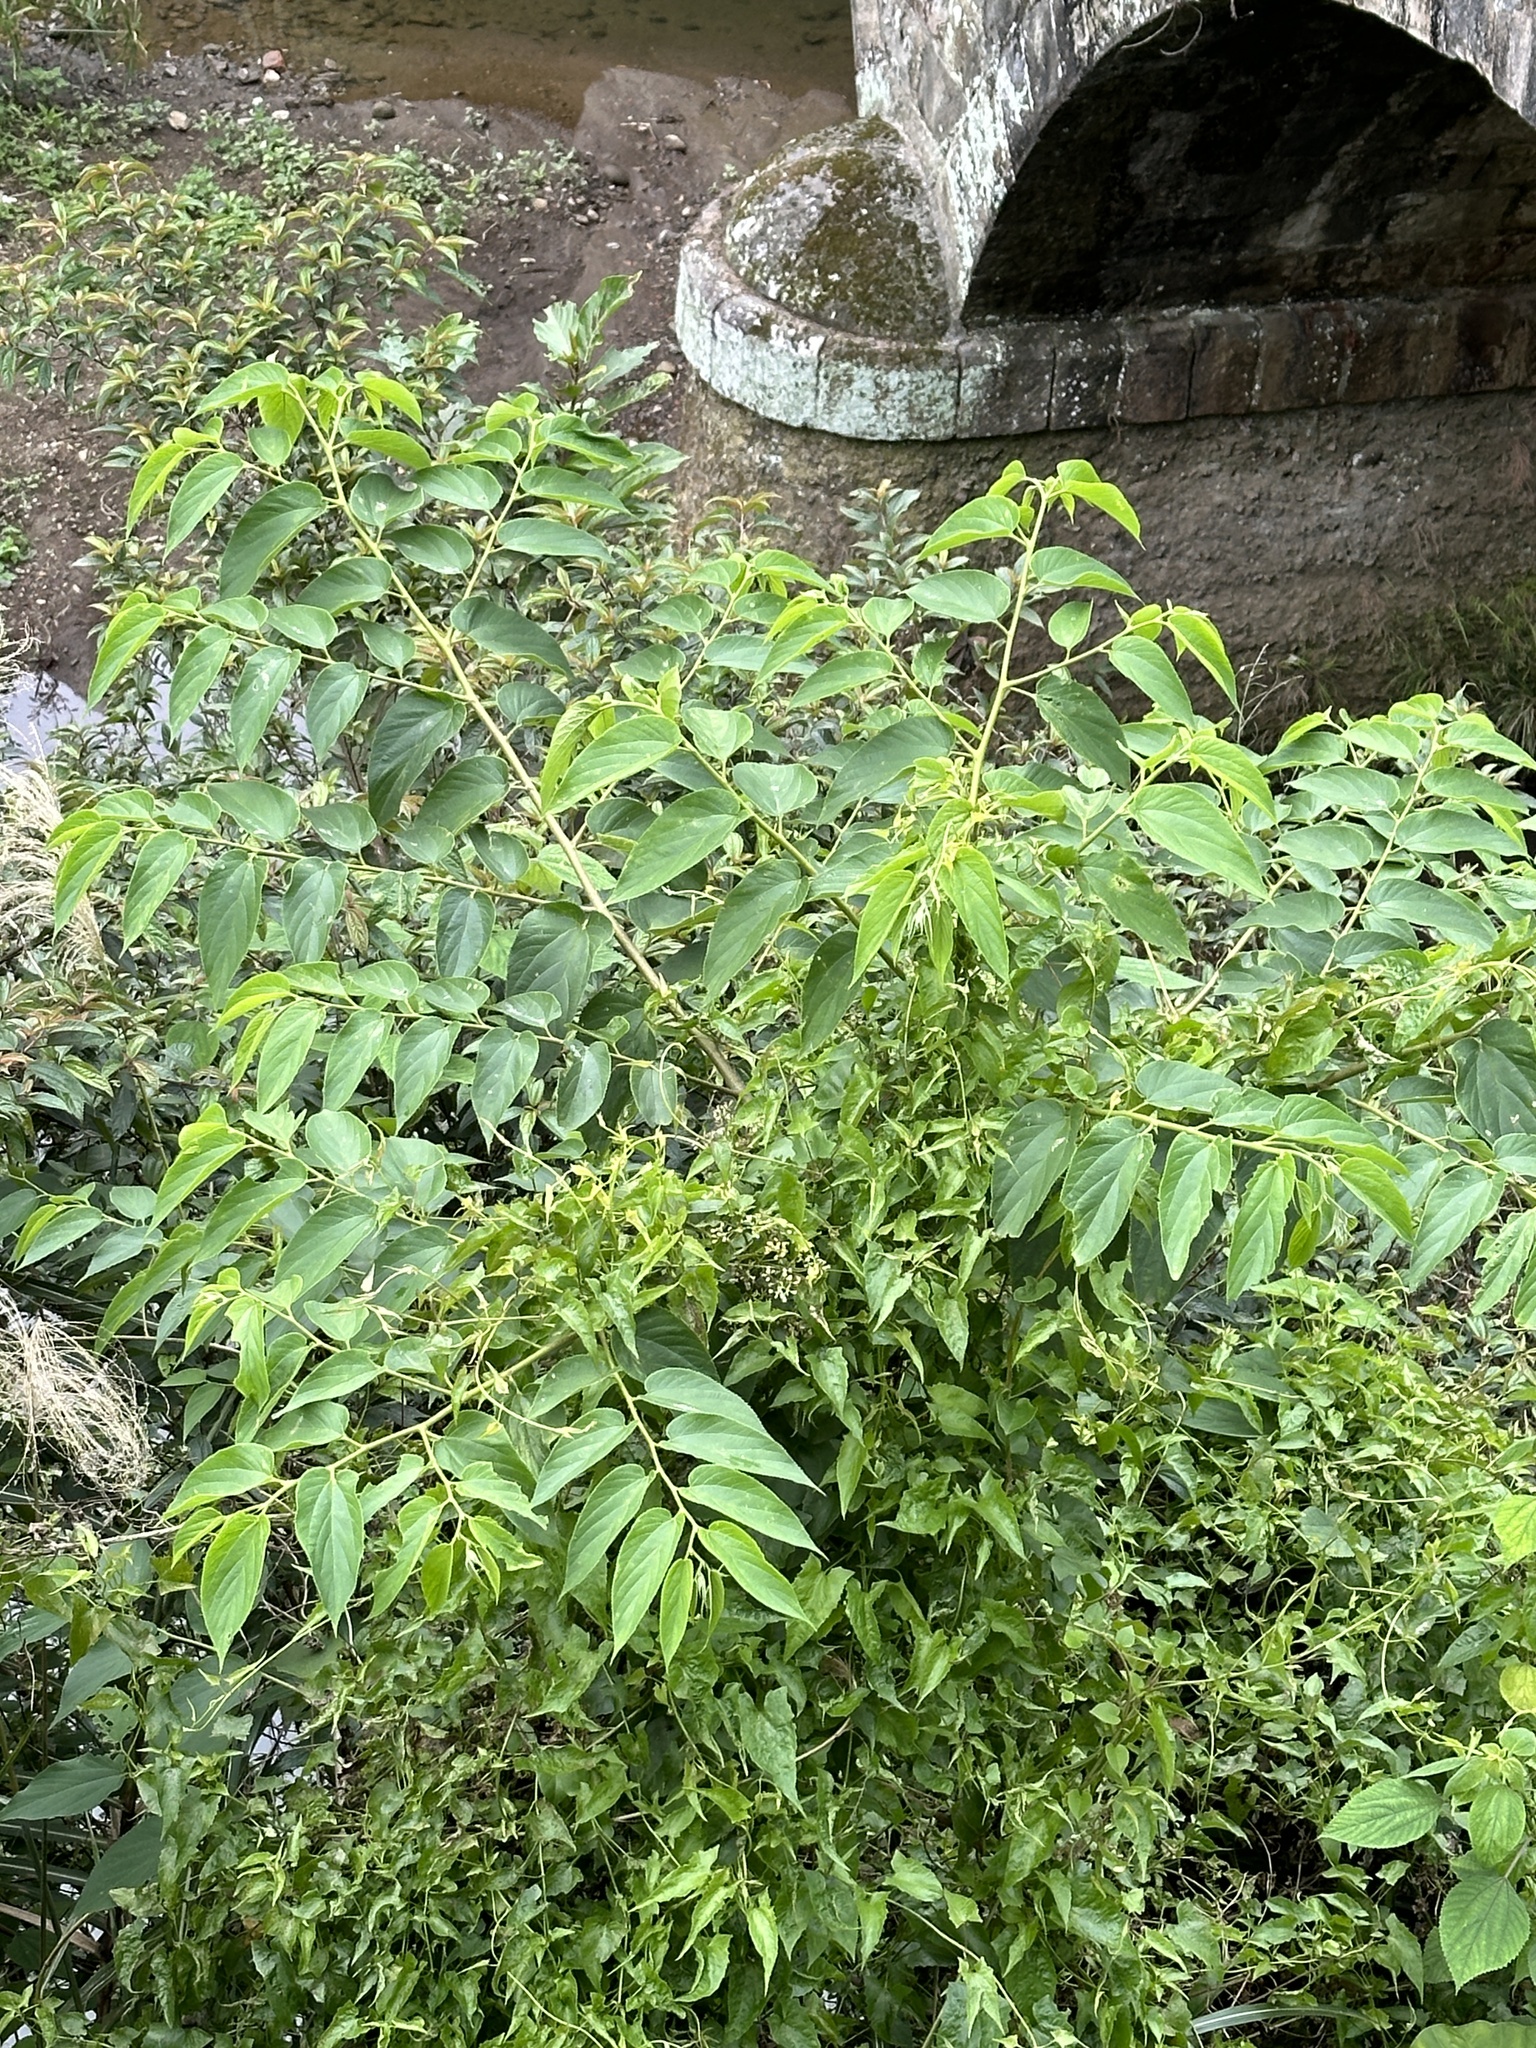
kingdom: Plantae
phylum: Tracheophyta
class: Magnoliopsida
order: Rosales
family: Cannabaceae
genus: Trema
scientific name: Trema orientale
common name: Indian charcoal tree
